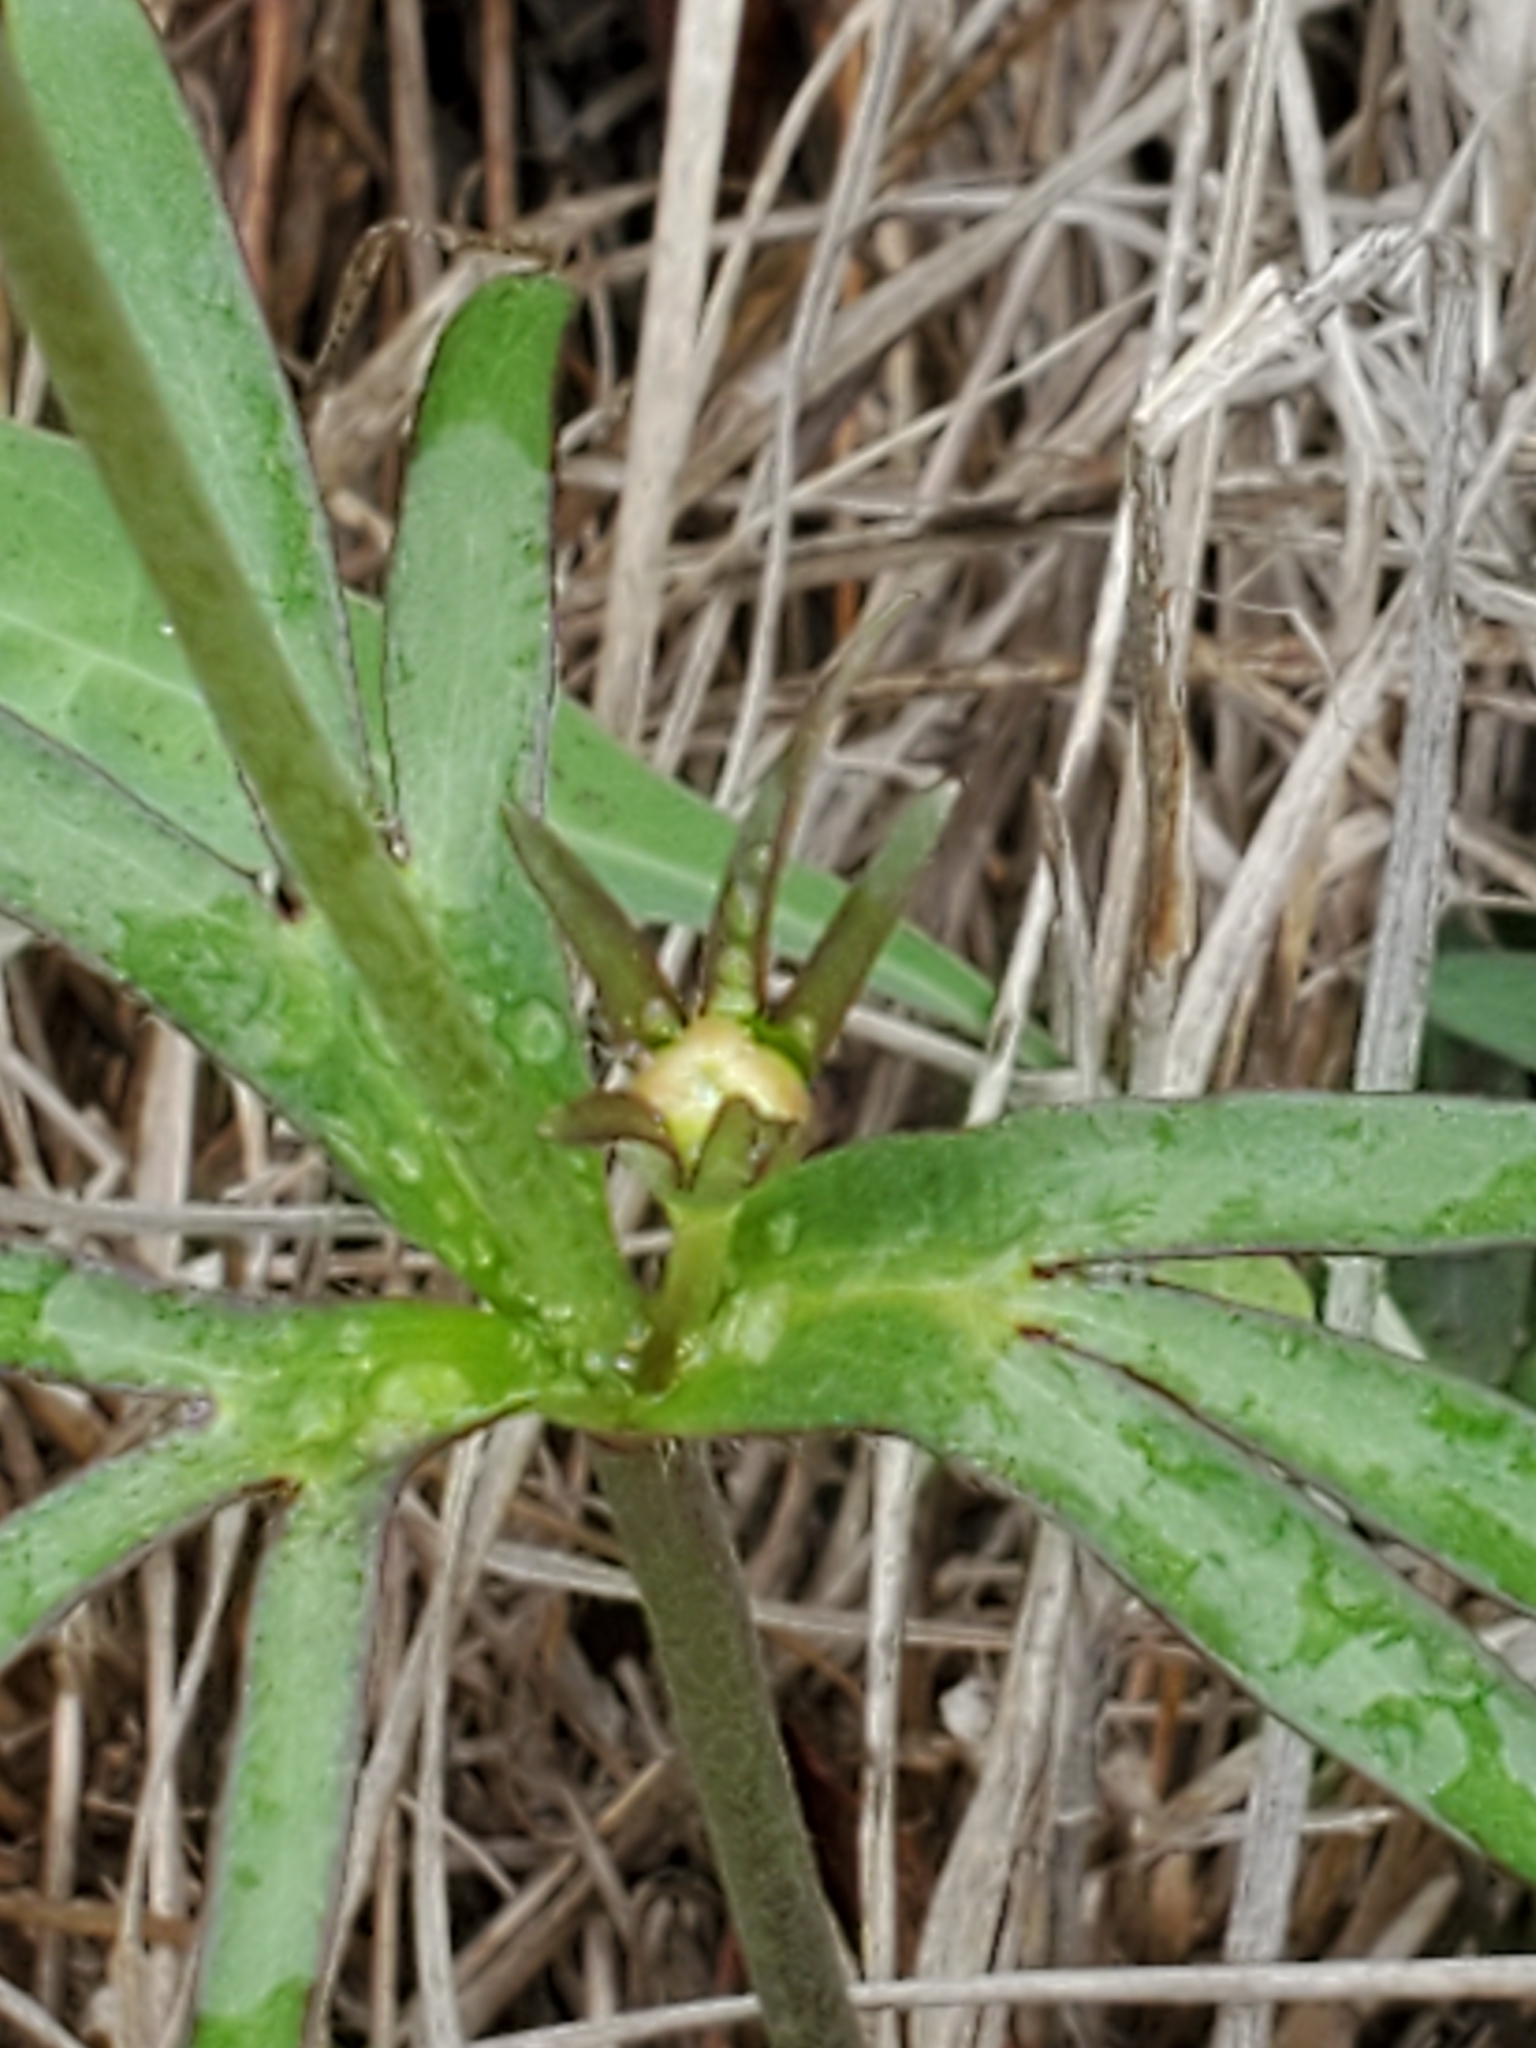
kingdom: Plantae
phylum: Tracheophyta
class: Magnoliopsida
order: Ranunculales
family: Ranunculaceae
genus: Anemone
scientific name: Anemone edwardsiana
